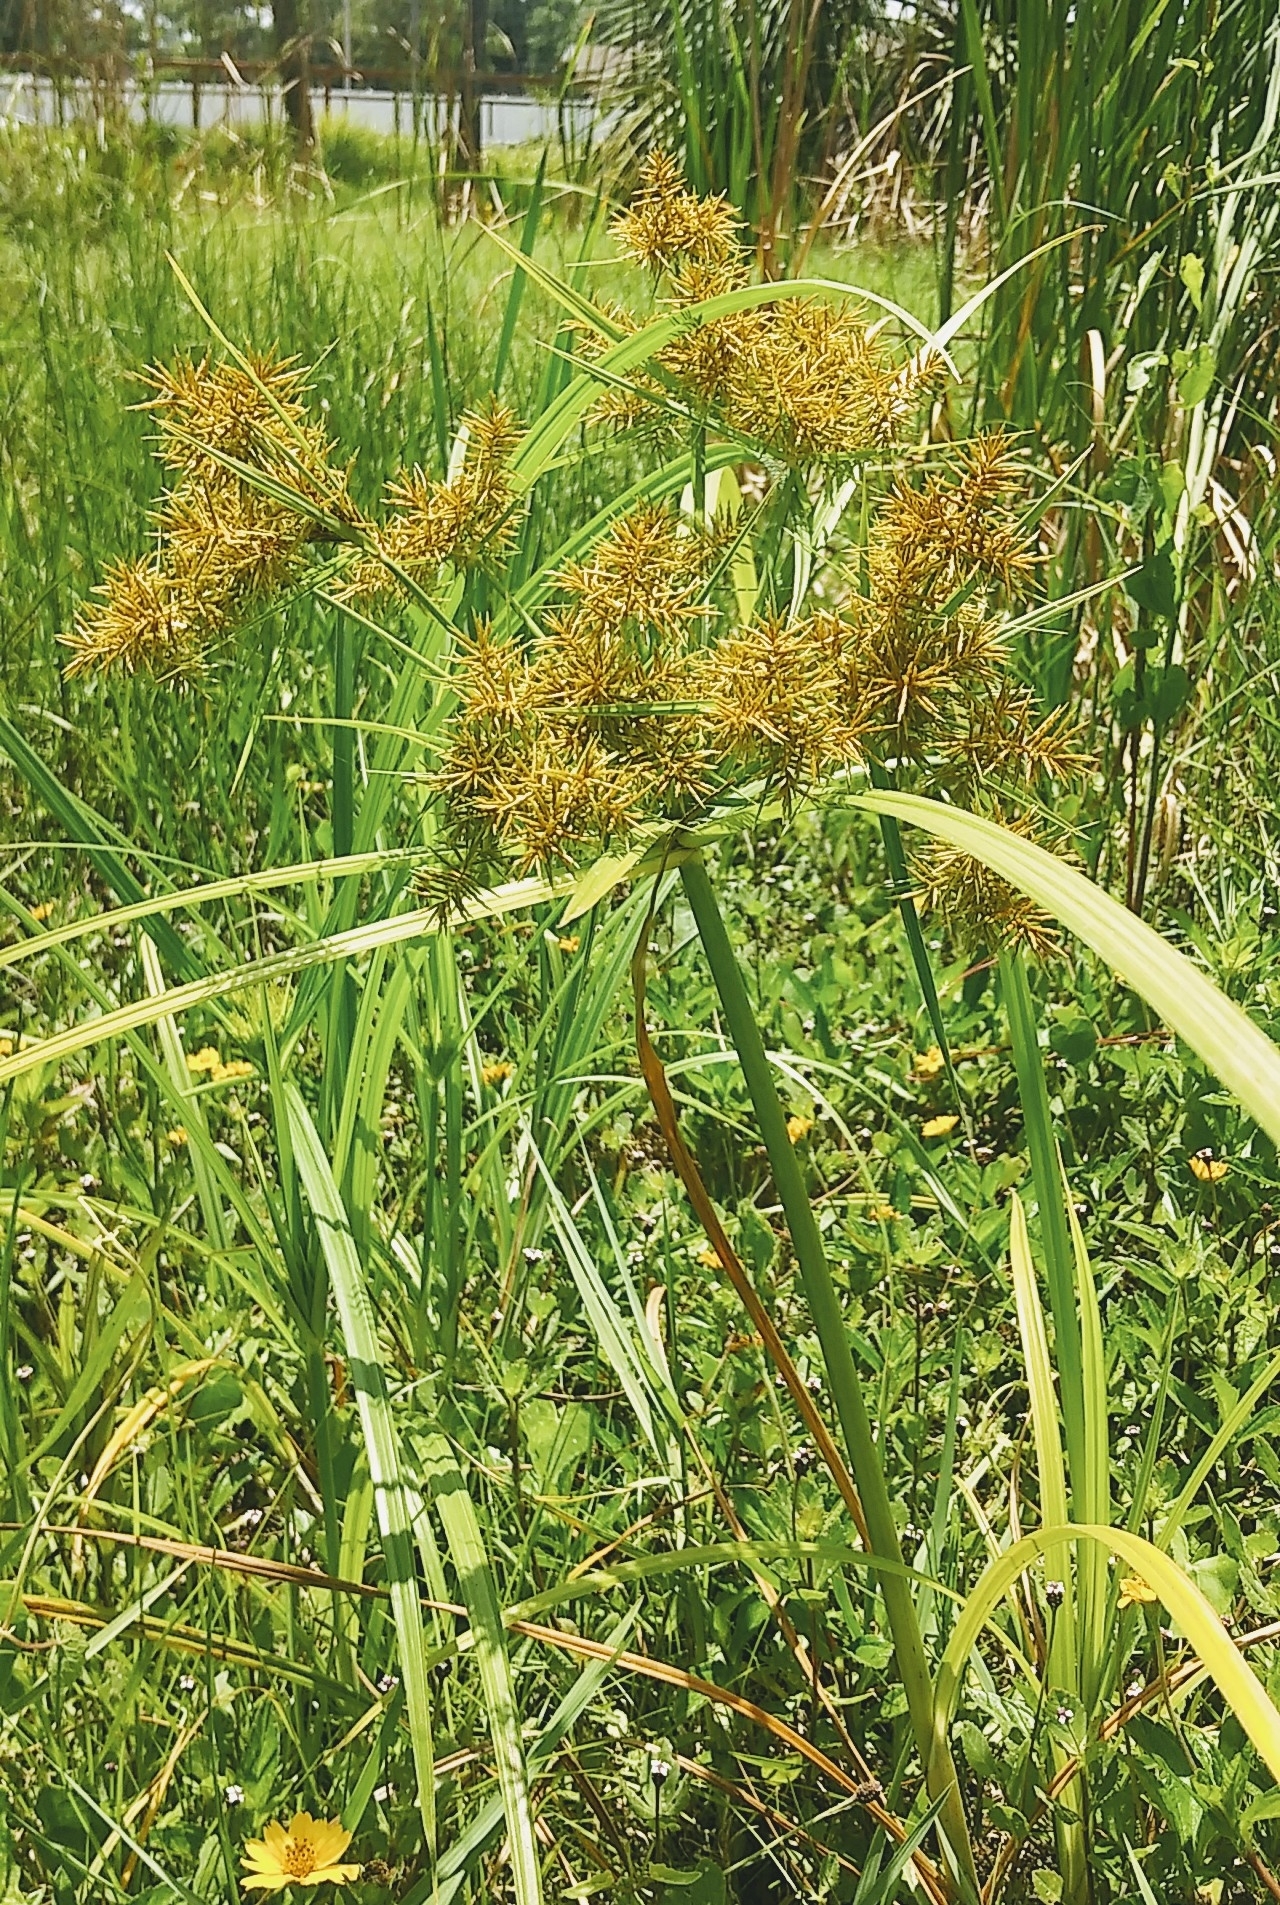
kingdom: Plantae
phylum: Tracheophyta
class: Liliopsida
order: Poales
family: Cyperaceae
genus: Cyperus
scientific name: Cyperus odoratus
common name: Fragrant flatsedge
